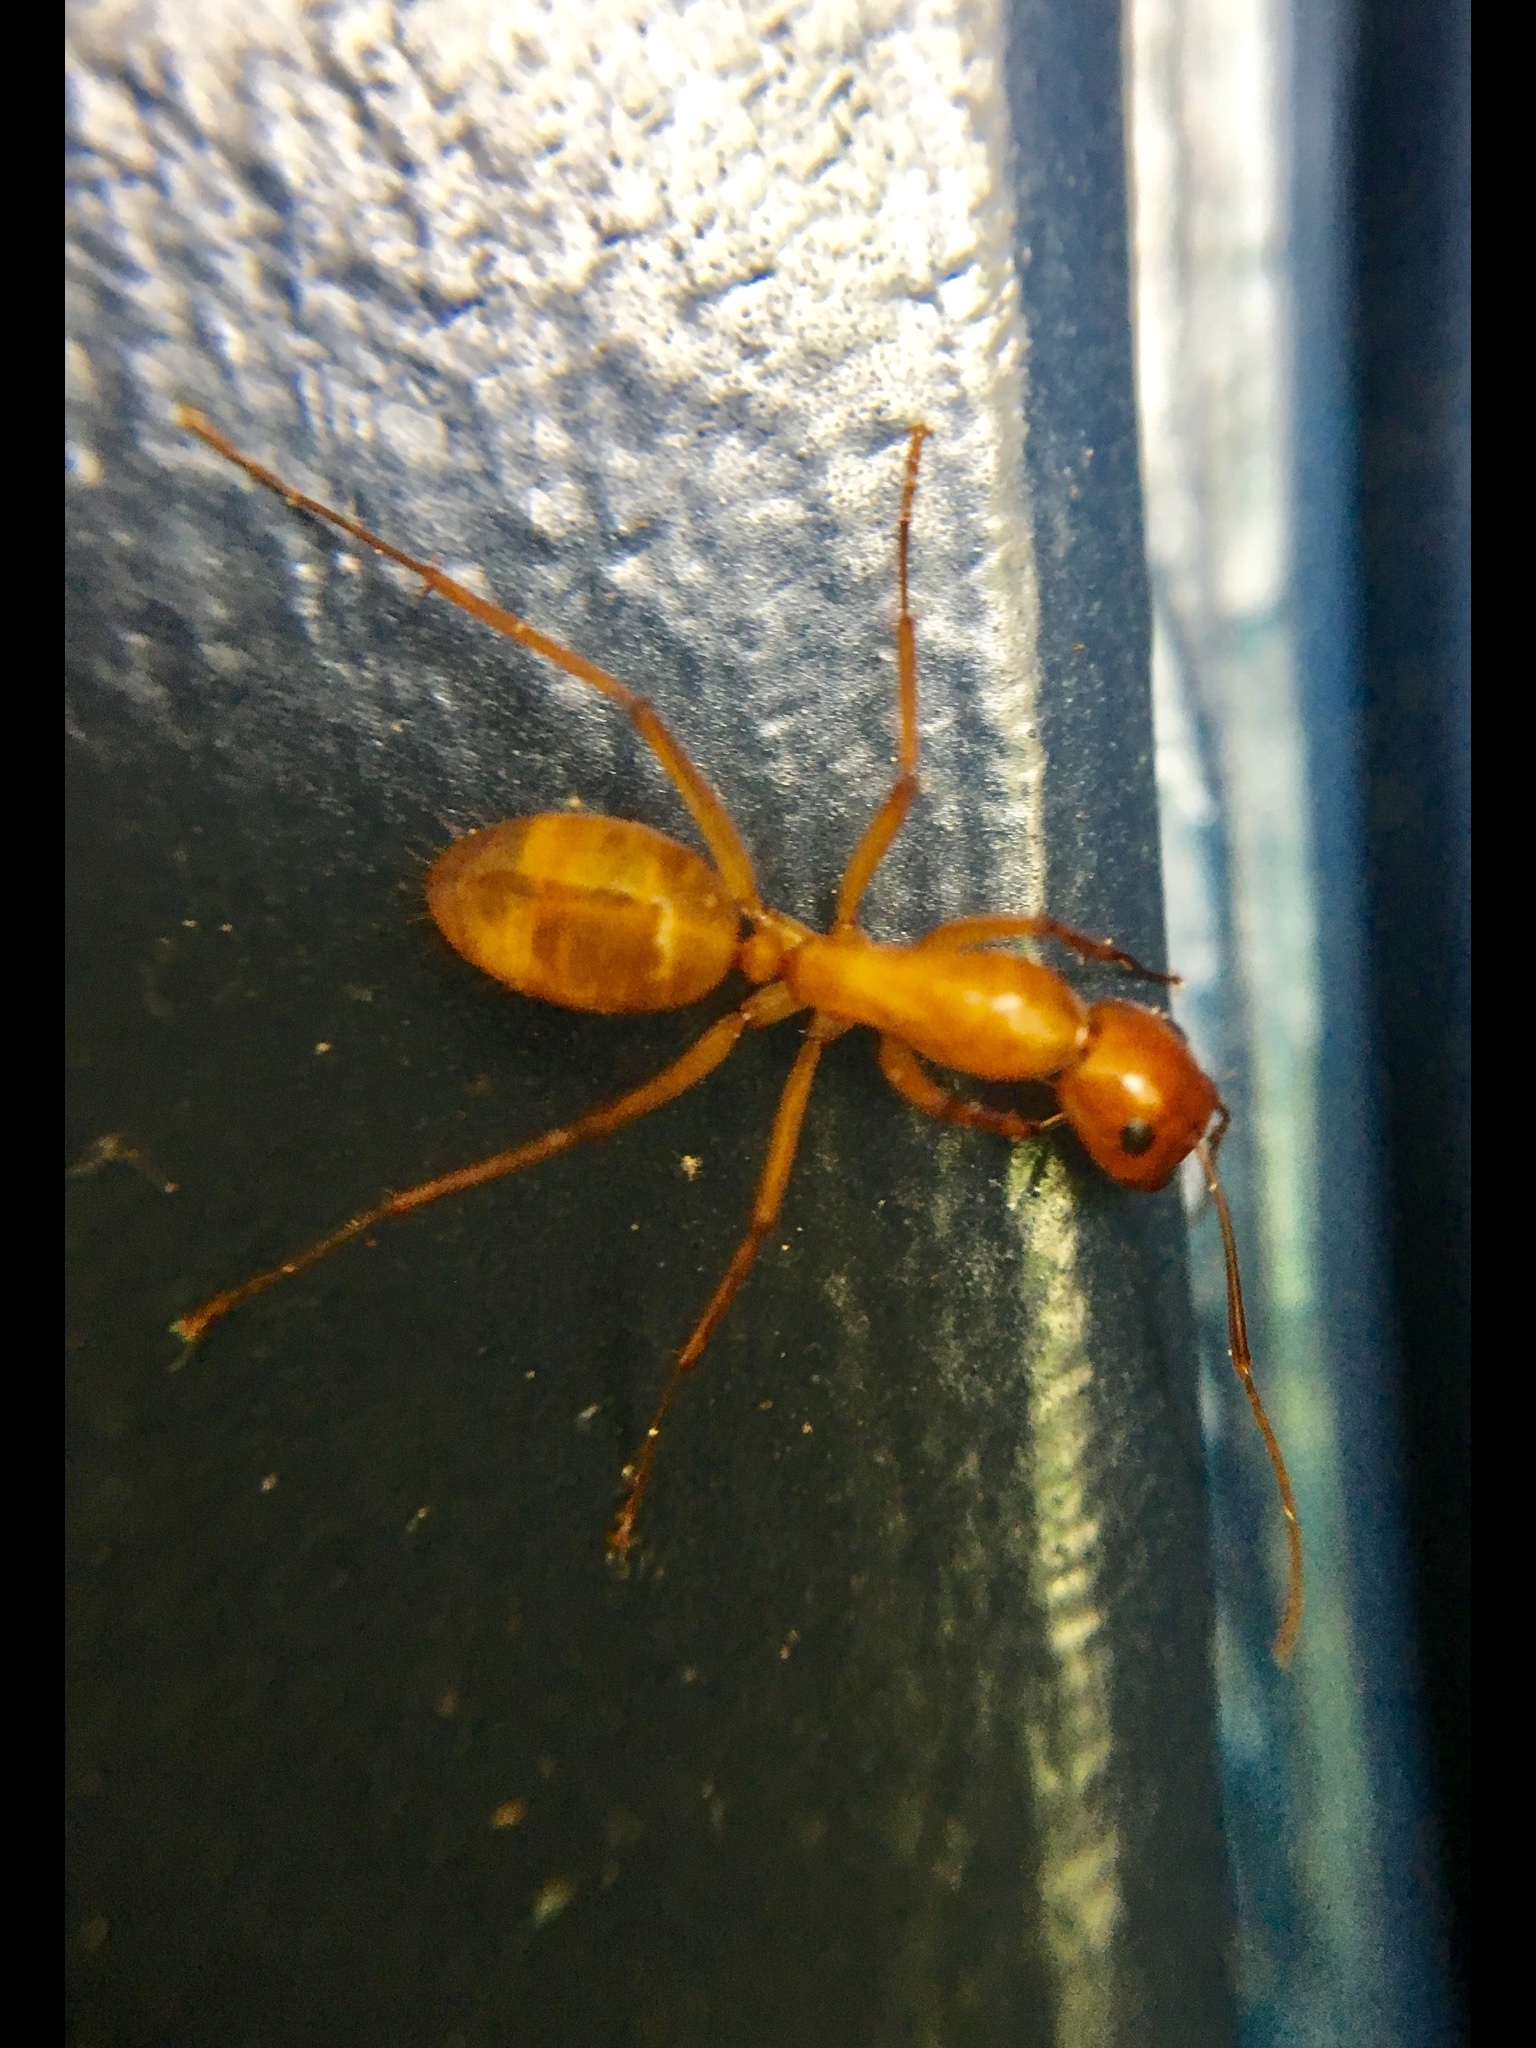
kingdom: Animalia
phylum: Arthropoda
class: Insecta
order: Hymenoptera
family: Formicidae
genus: Camponotus
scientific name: Camponotus castaneus
